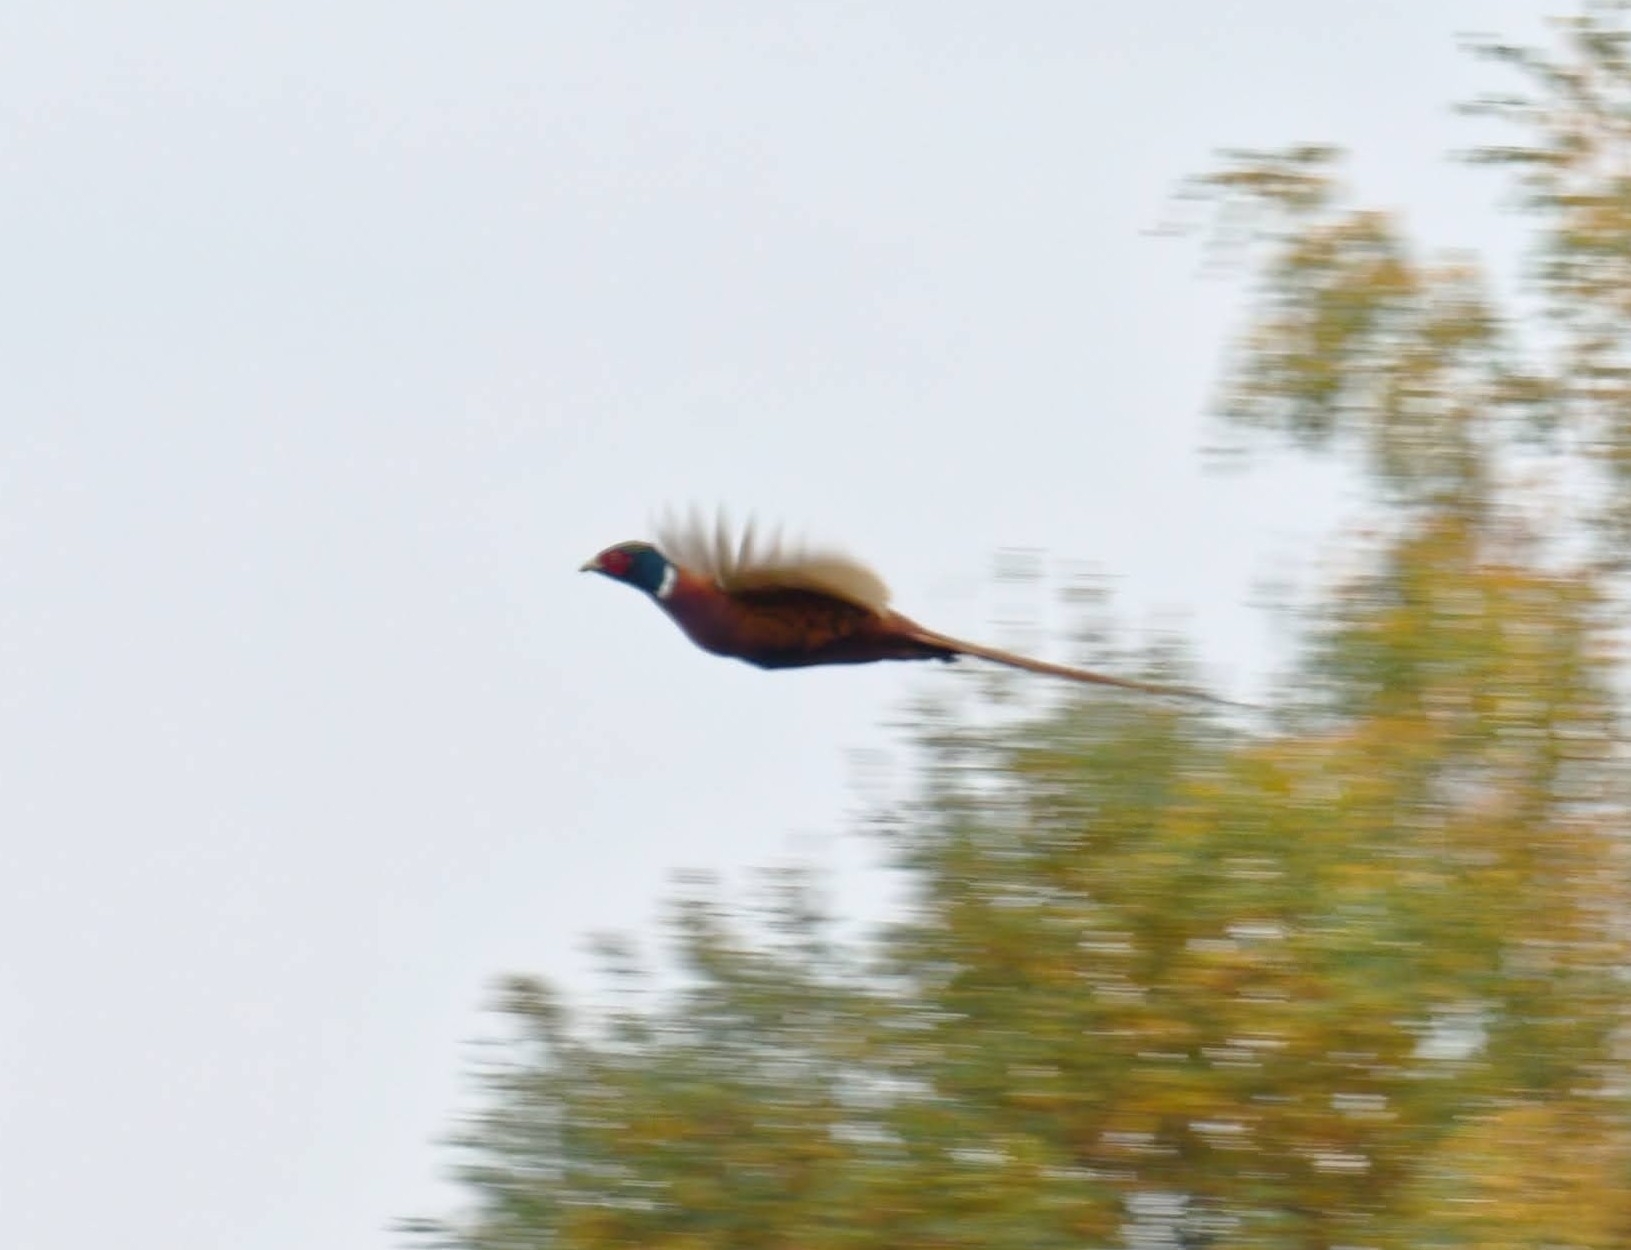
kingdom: Animalia
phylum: Chordata
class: Aves
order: Galliformes
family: Phasianidae
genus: Phasianus
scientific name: Phasianus colchicus
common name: Common pheasant
